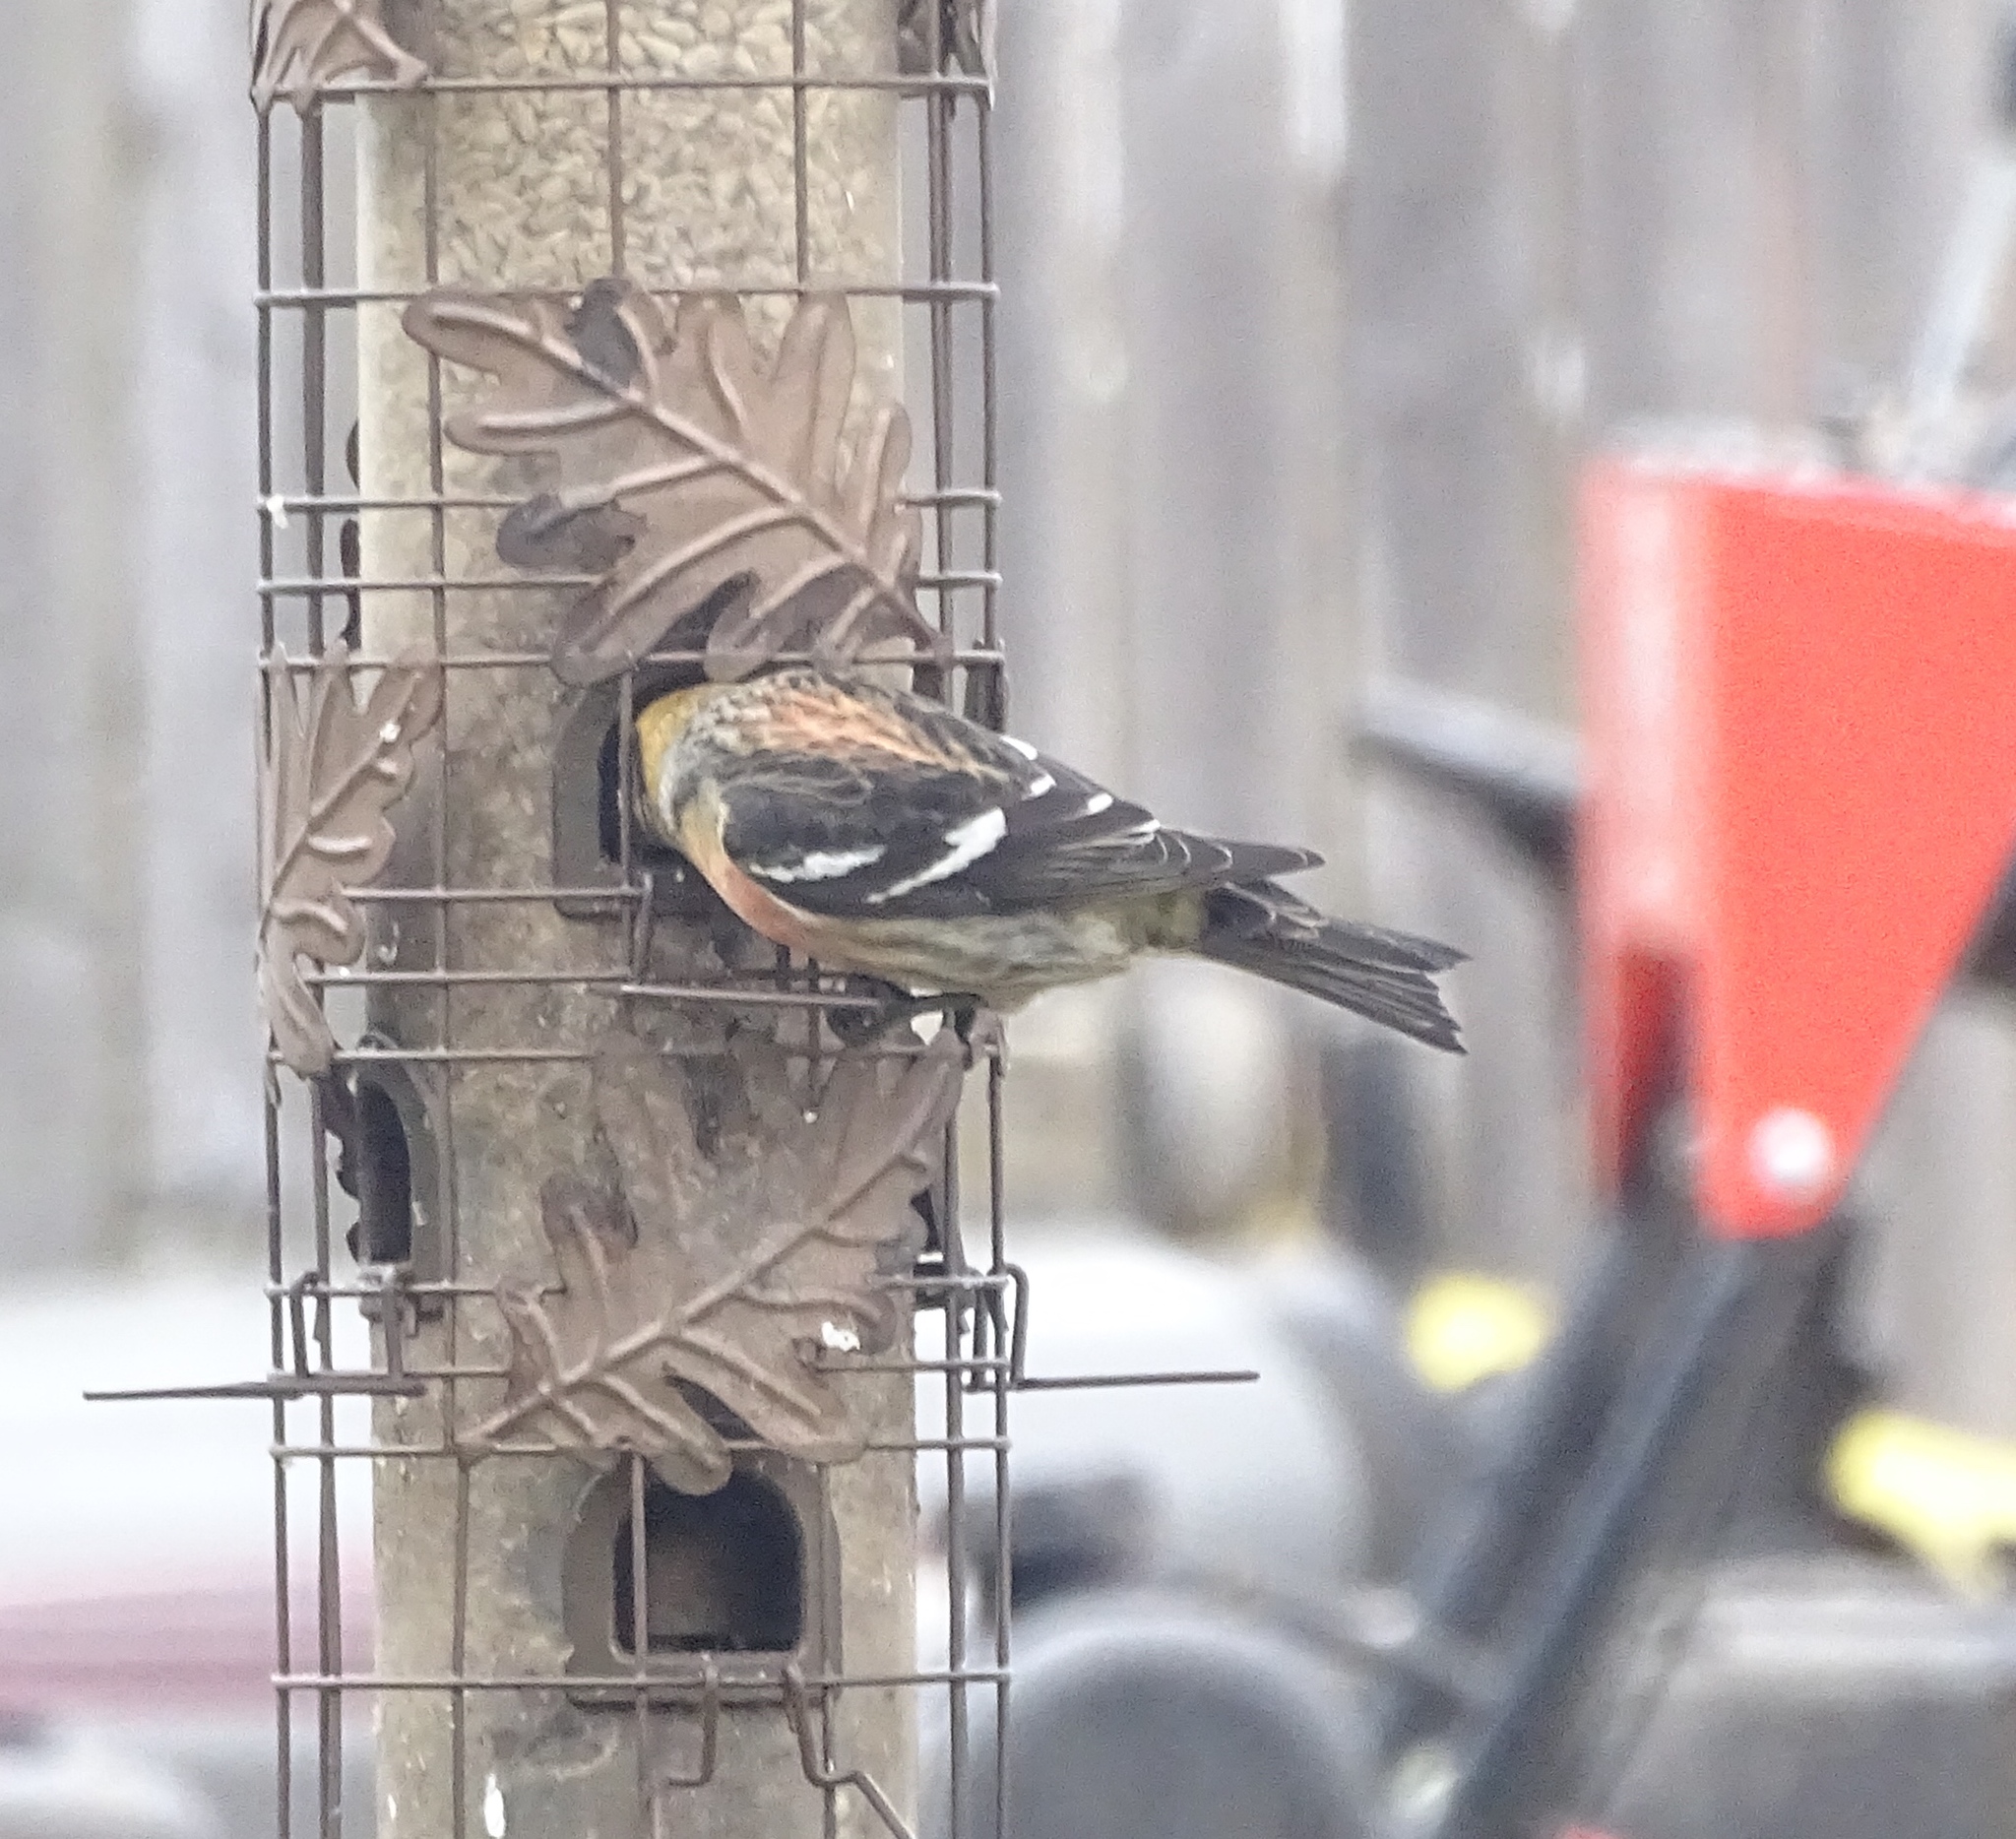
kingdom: Animalia
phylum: Chordata
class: Aves
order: Passeriformes
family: Fringillidae
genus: Loxia
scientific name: Loxia leucoptera
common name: Two-barred crossbill
